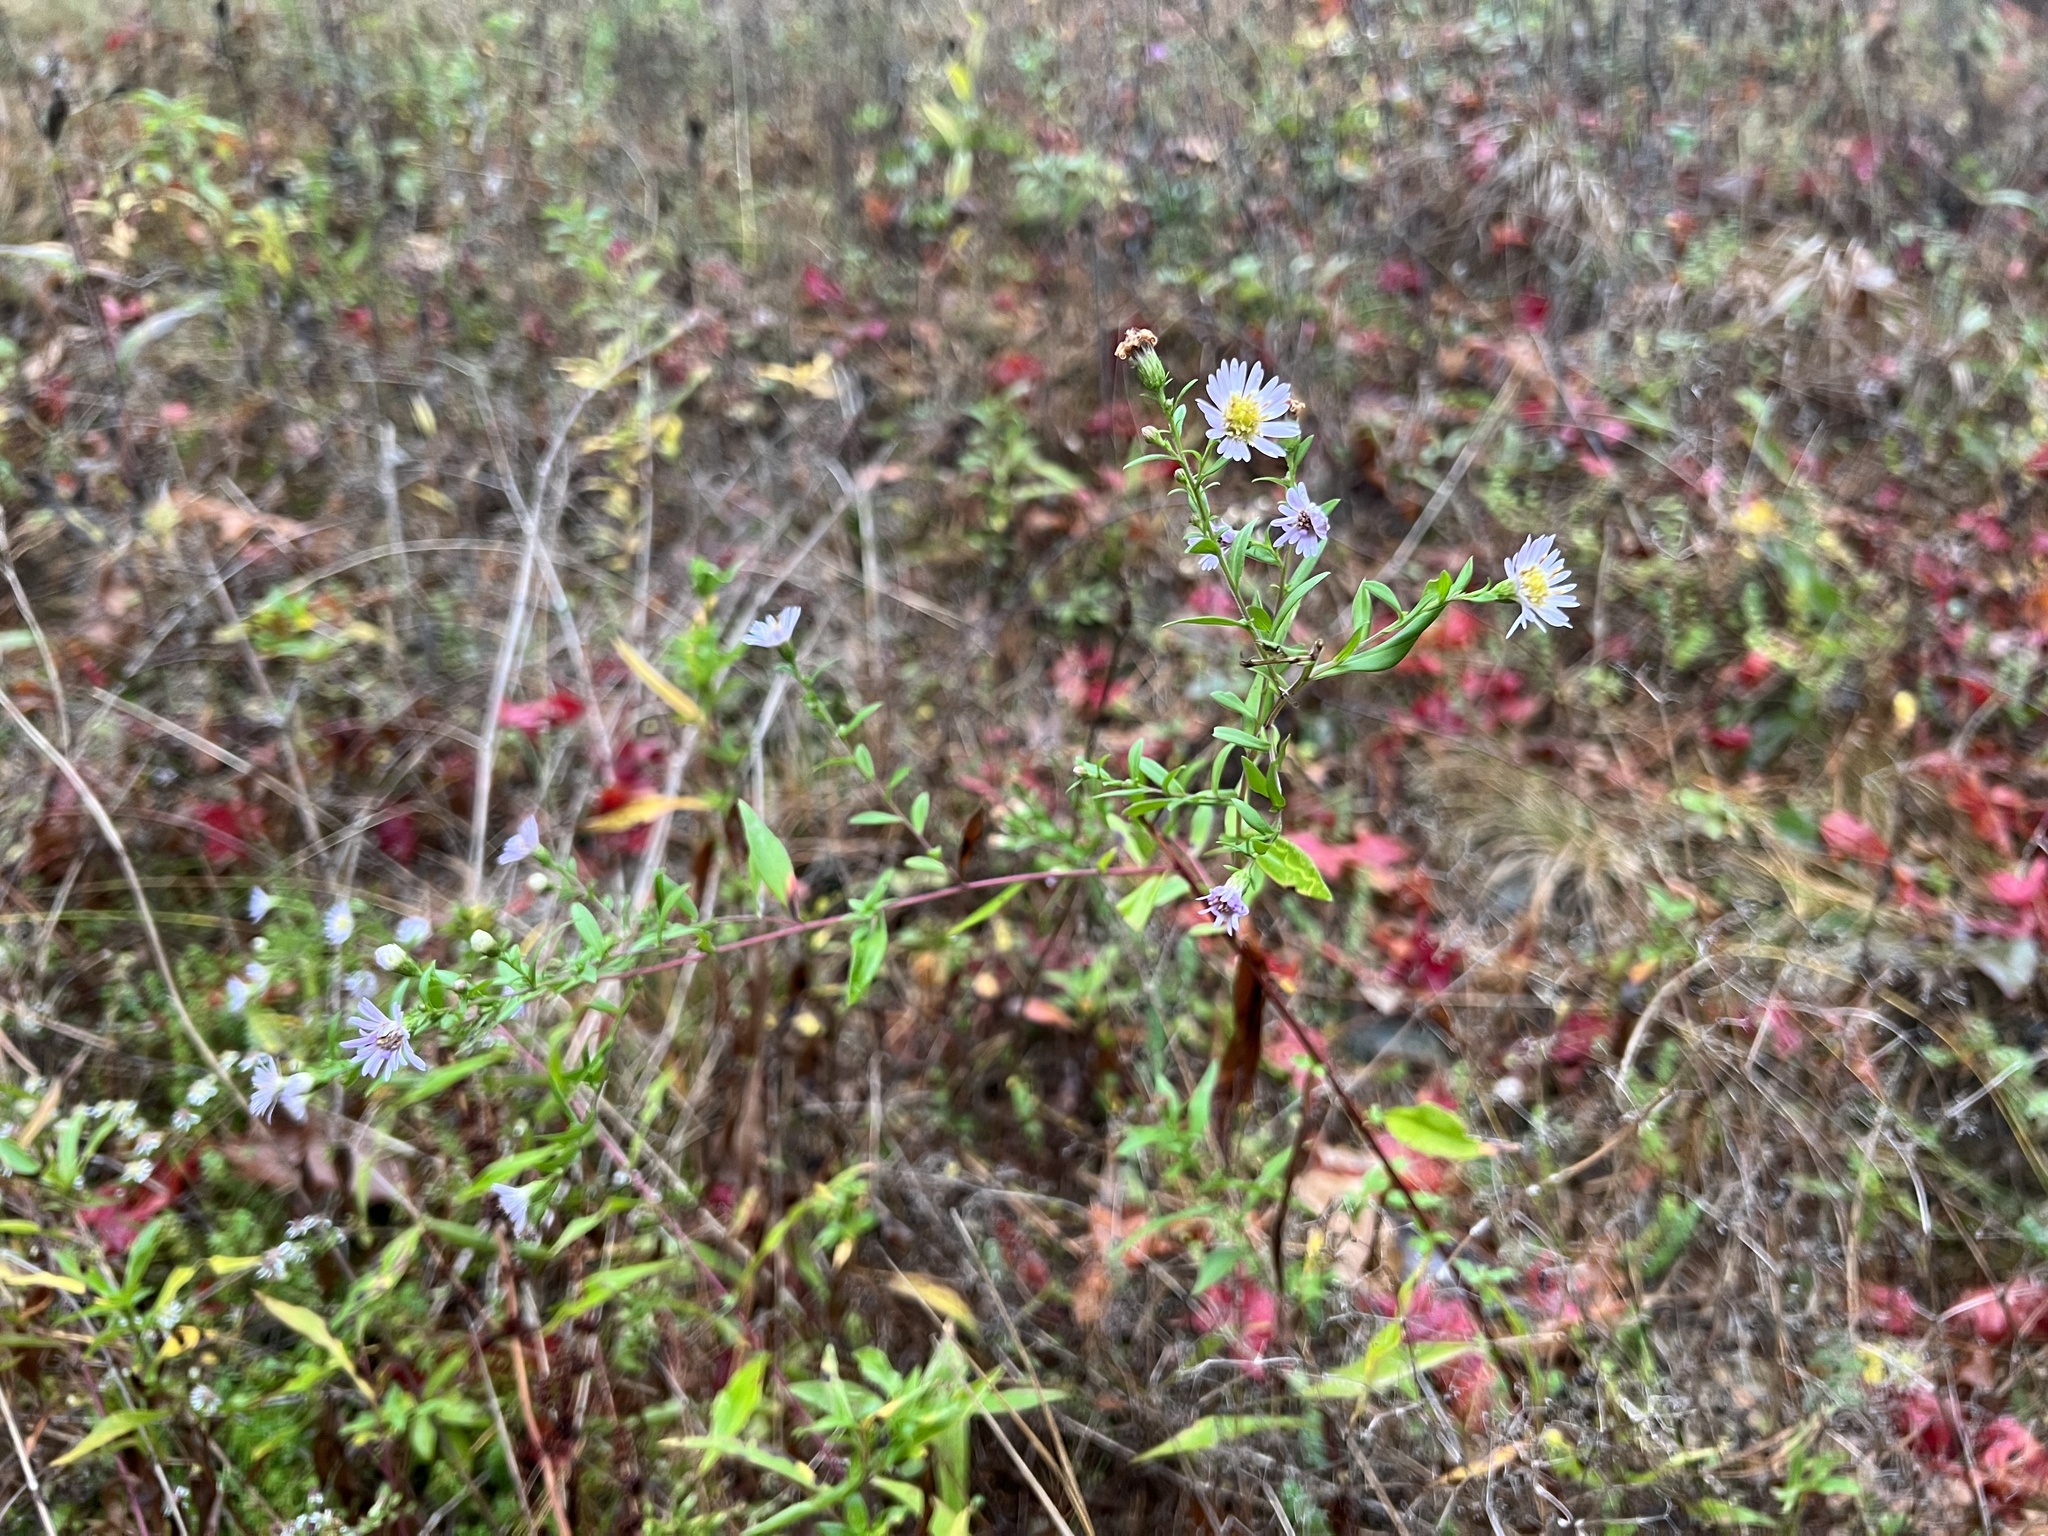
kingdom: Plantae
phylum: Tracheophyta
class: Magnoliopsida
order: Asterales
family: Asteraceae
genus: Symphyotrichum
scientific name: Symphyotrichum novi-belgii
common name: Michaelmas daisy
